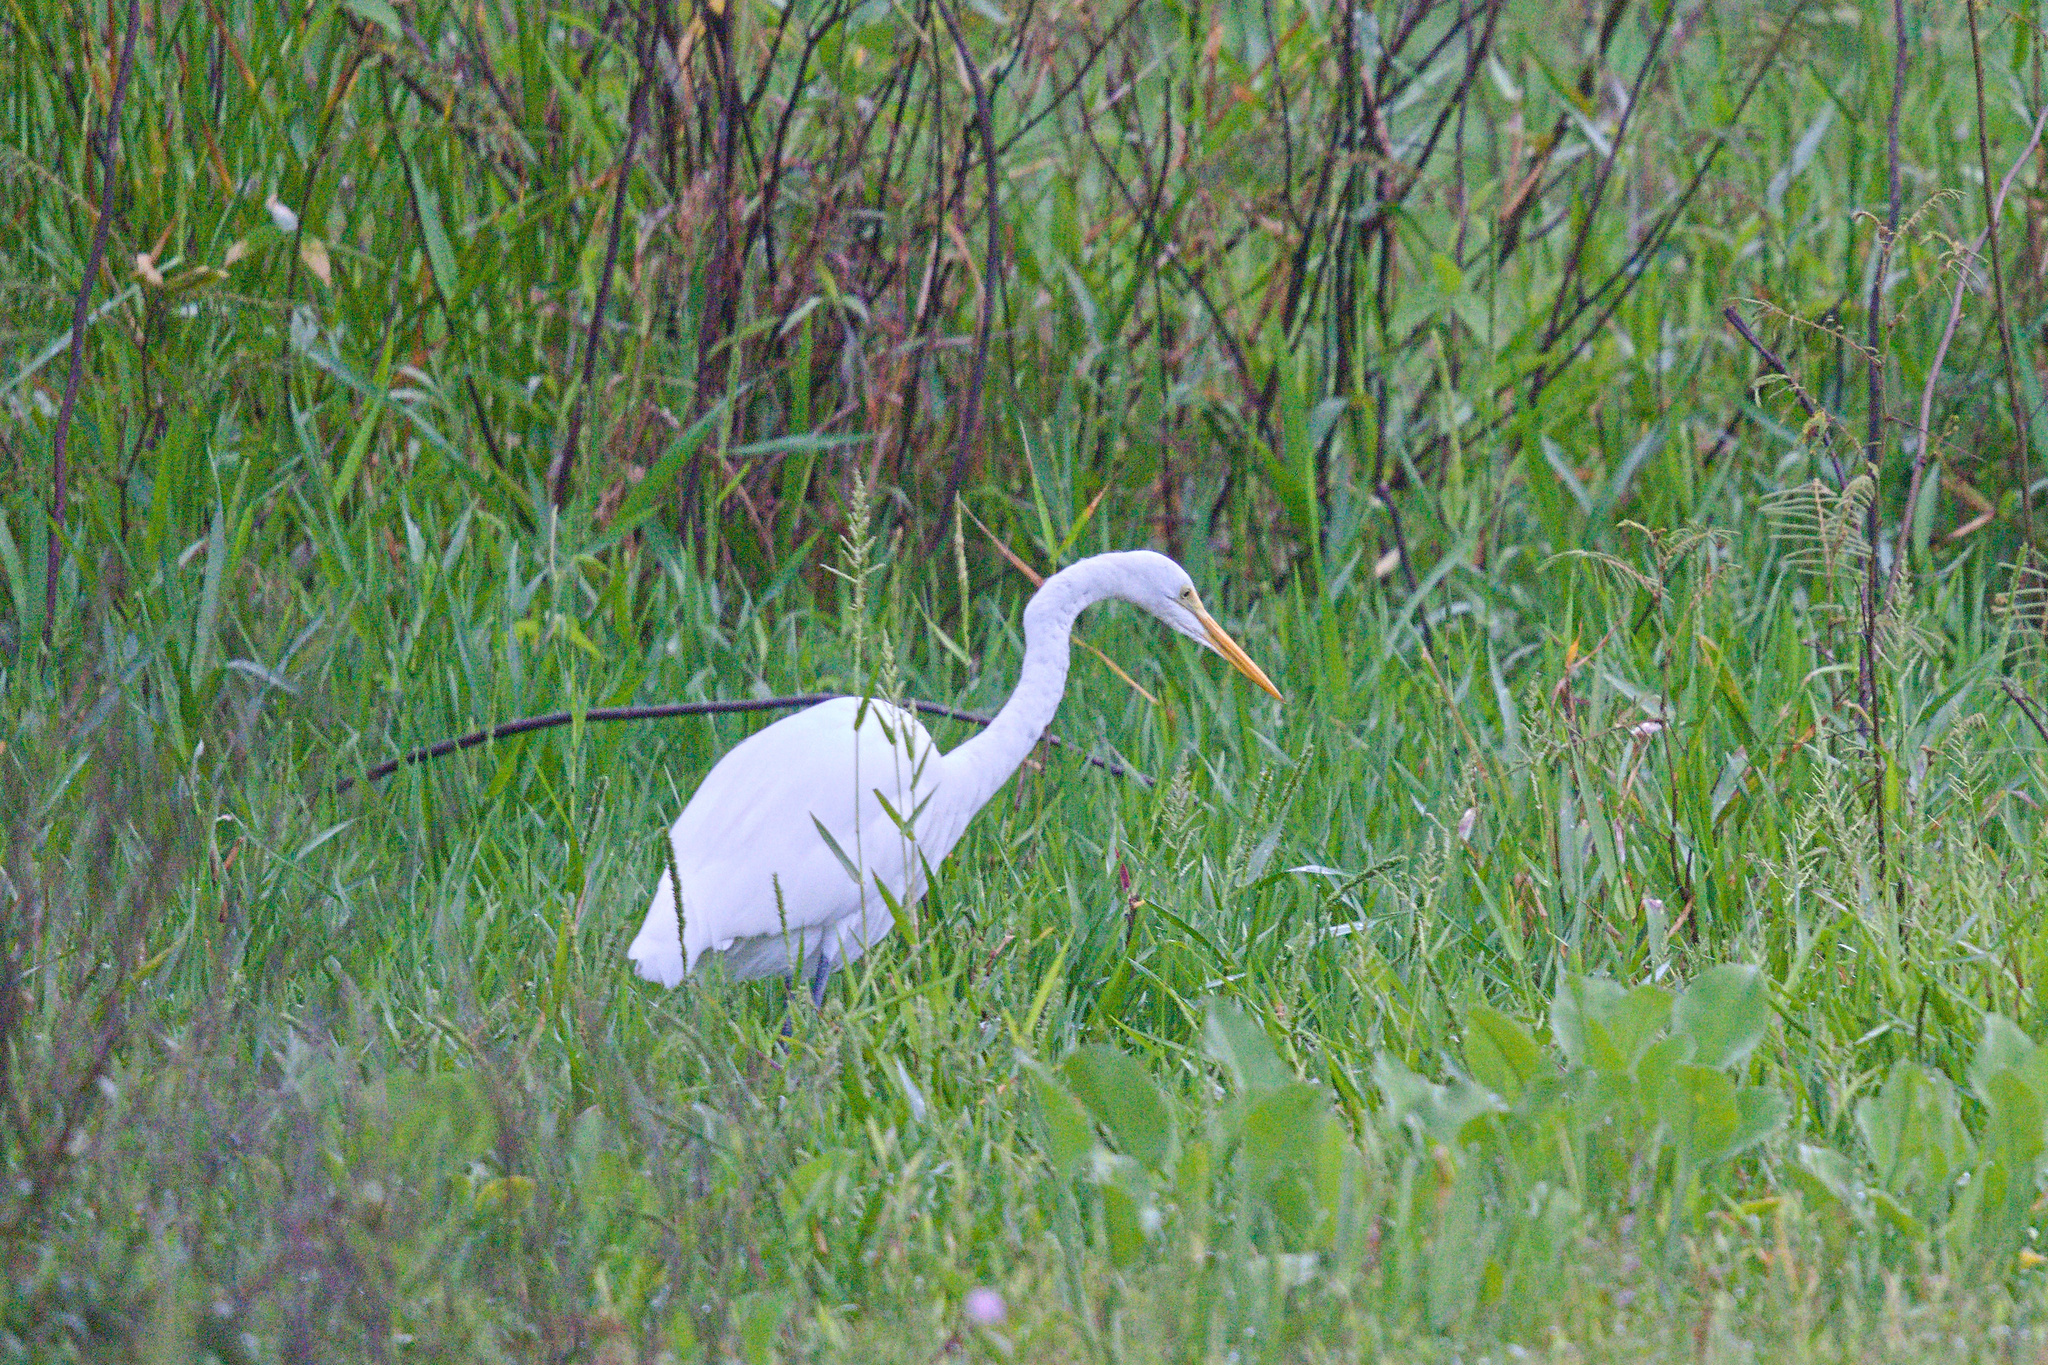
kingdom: Animalia
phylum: Chordata
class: Aves
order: Pelecaniformes
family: Ardeidae
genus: Ardea
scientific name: Ardea alba
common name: Great egret
